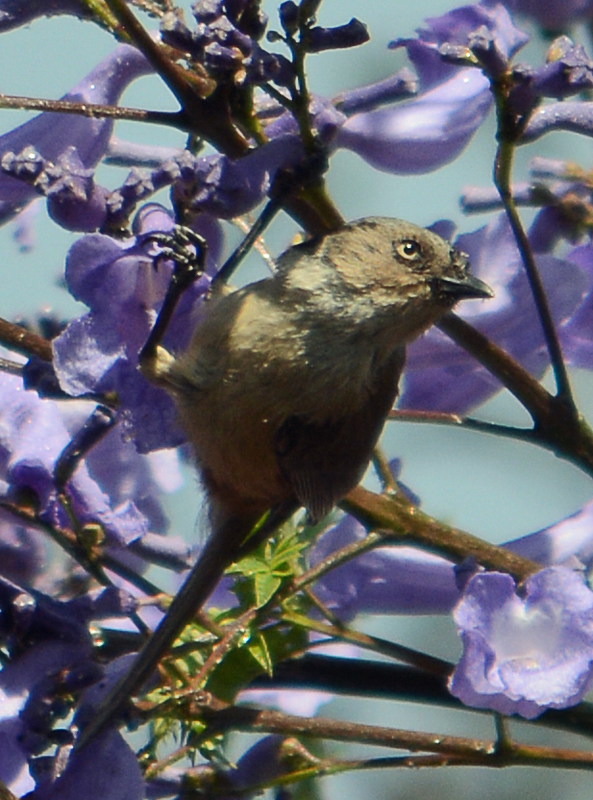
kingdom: Animalia
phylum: Chordata
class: Aves
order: Passeriformes
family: Aegithalidae
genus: Psaltriparus
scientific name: Psaltriparus minimus
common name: American bushtit
